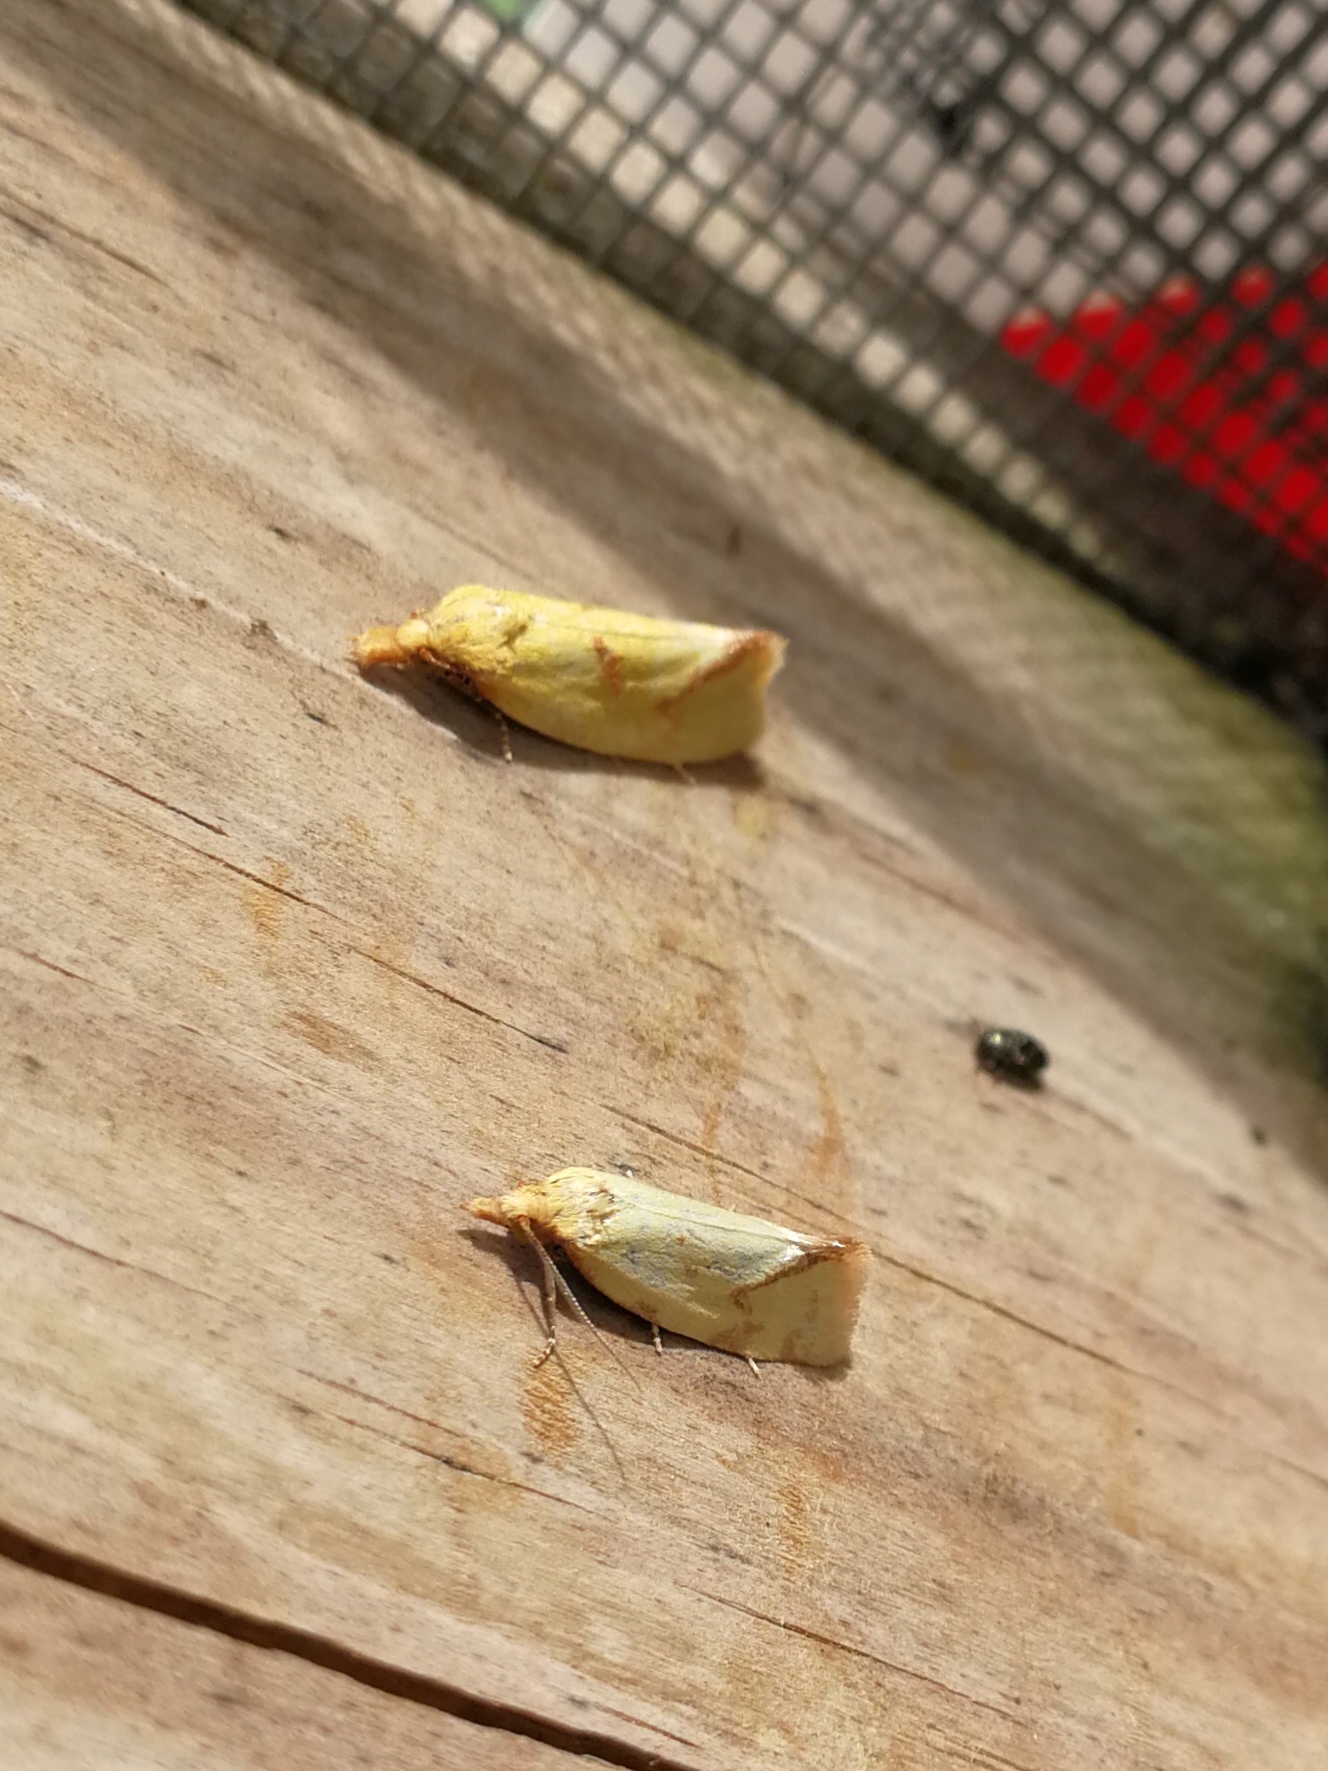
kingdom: Animalia
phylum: Arthropoda
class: Insecta
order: Lepidoptera
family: Tortricidae
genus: Agapeta
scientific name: Agapeta hamana
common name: Common yellow conch
